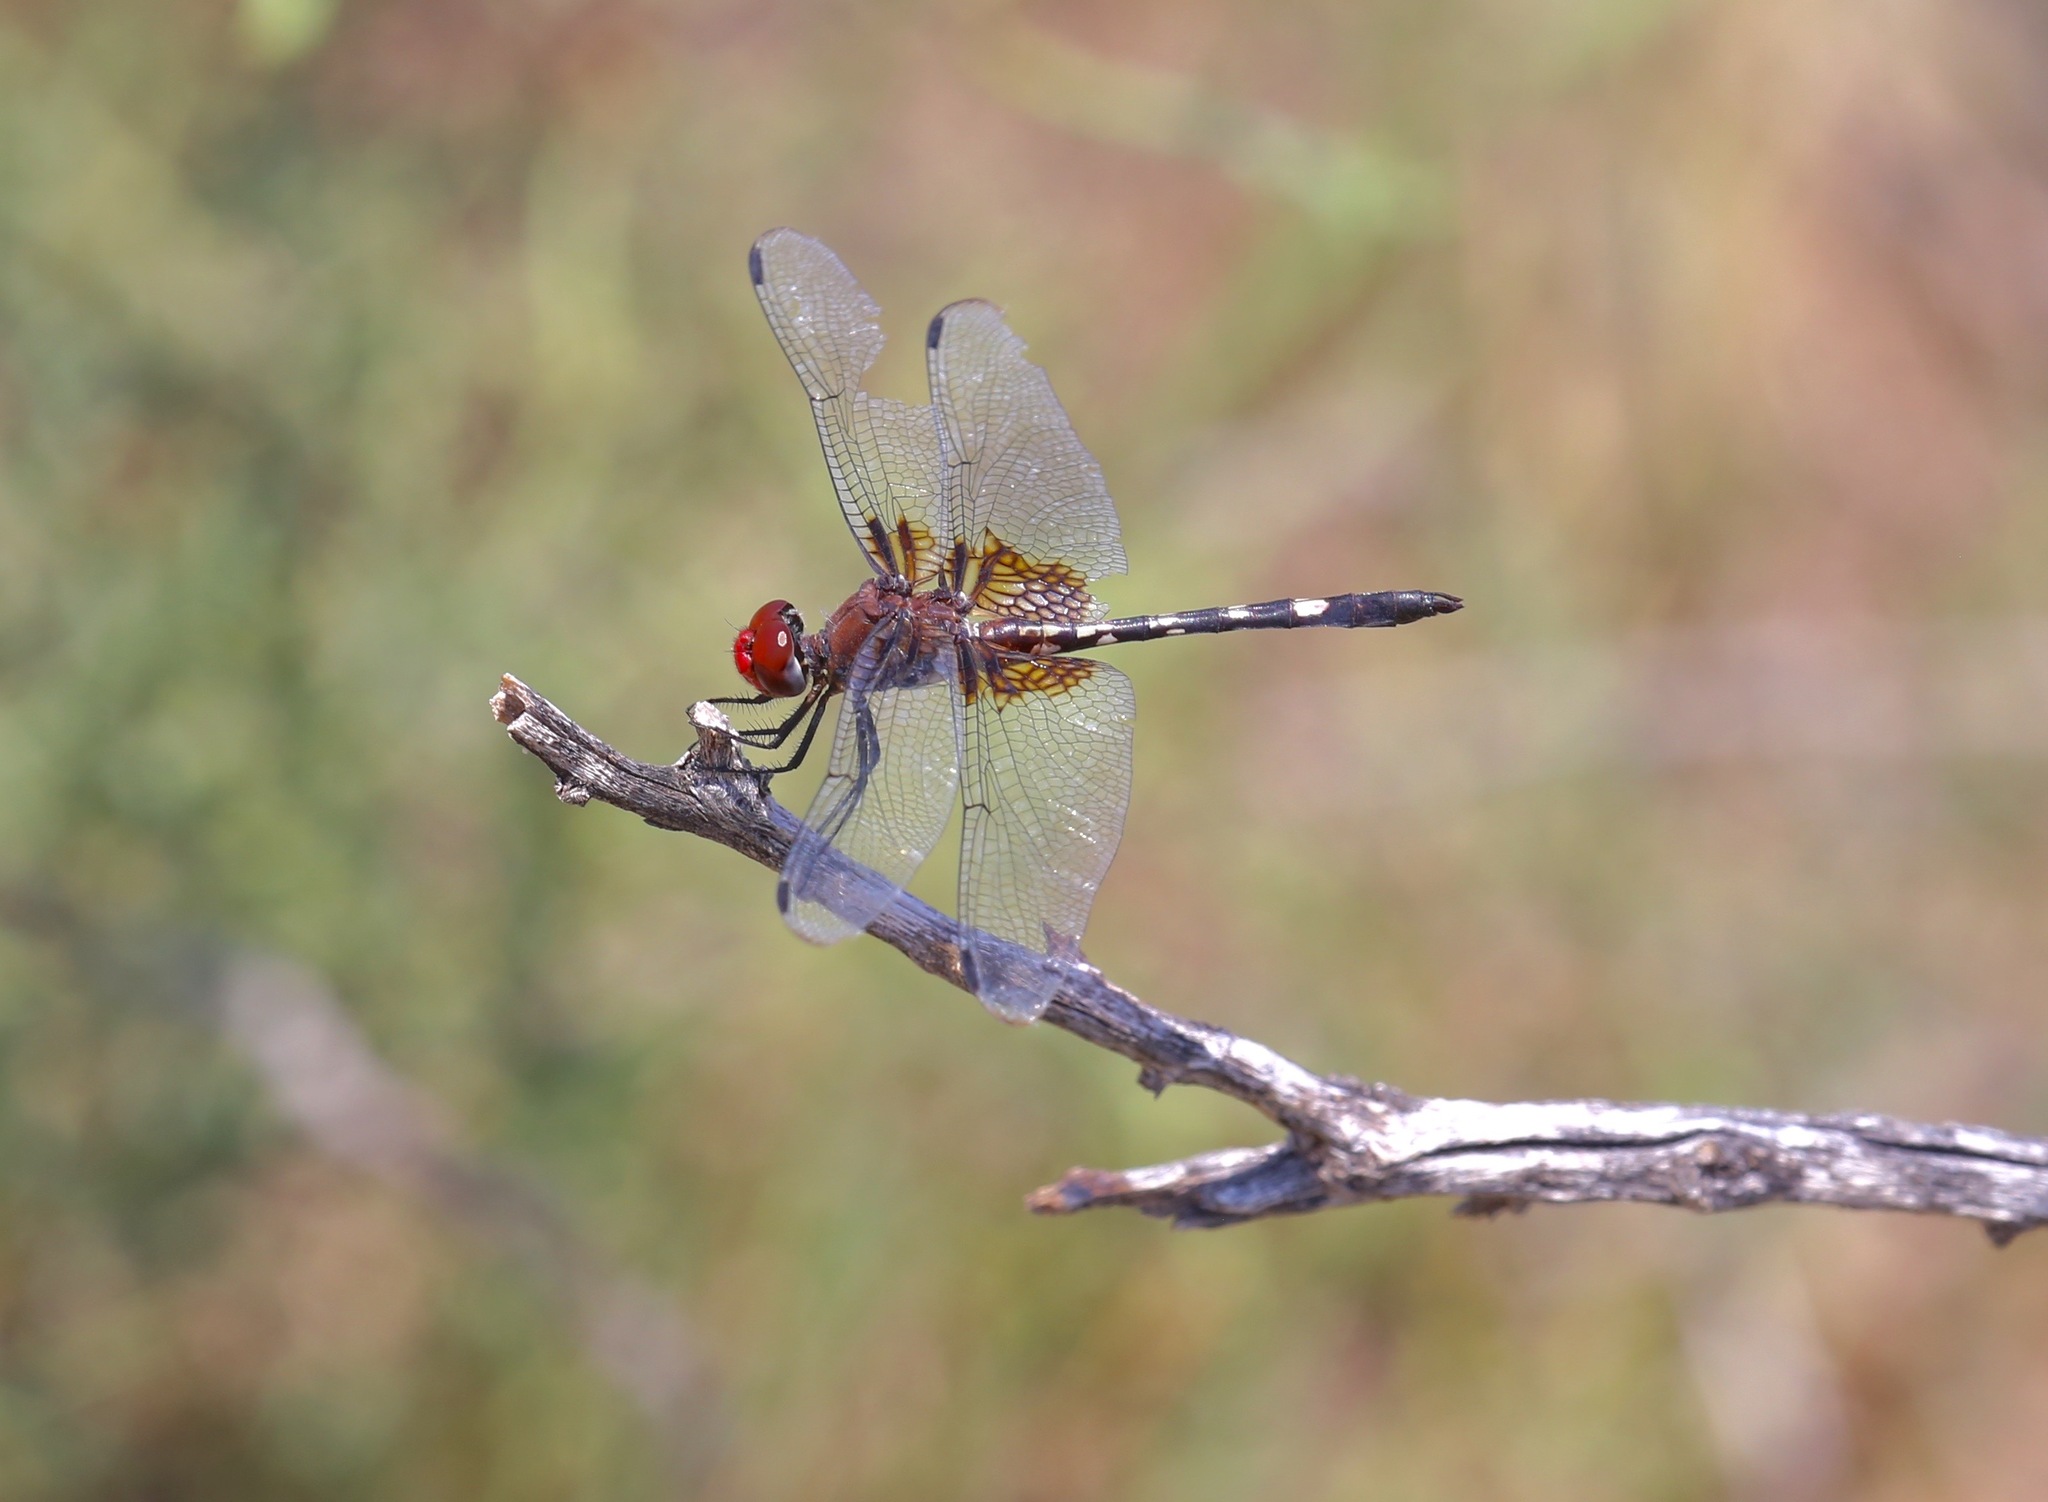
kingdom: Animalia
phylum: Arthropoda
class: Insecta
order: Odonata
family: Libellulidae
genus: Dythemis
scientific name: Dythemis fugax
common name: Checkered setwing
